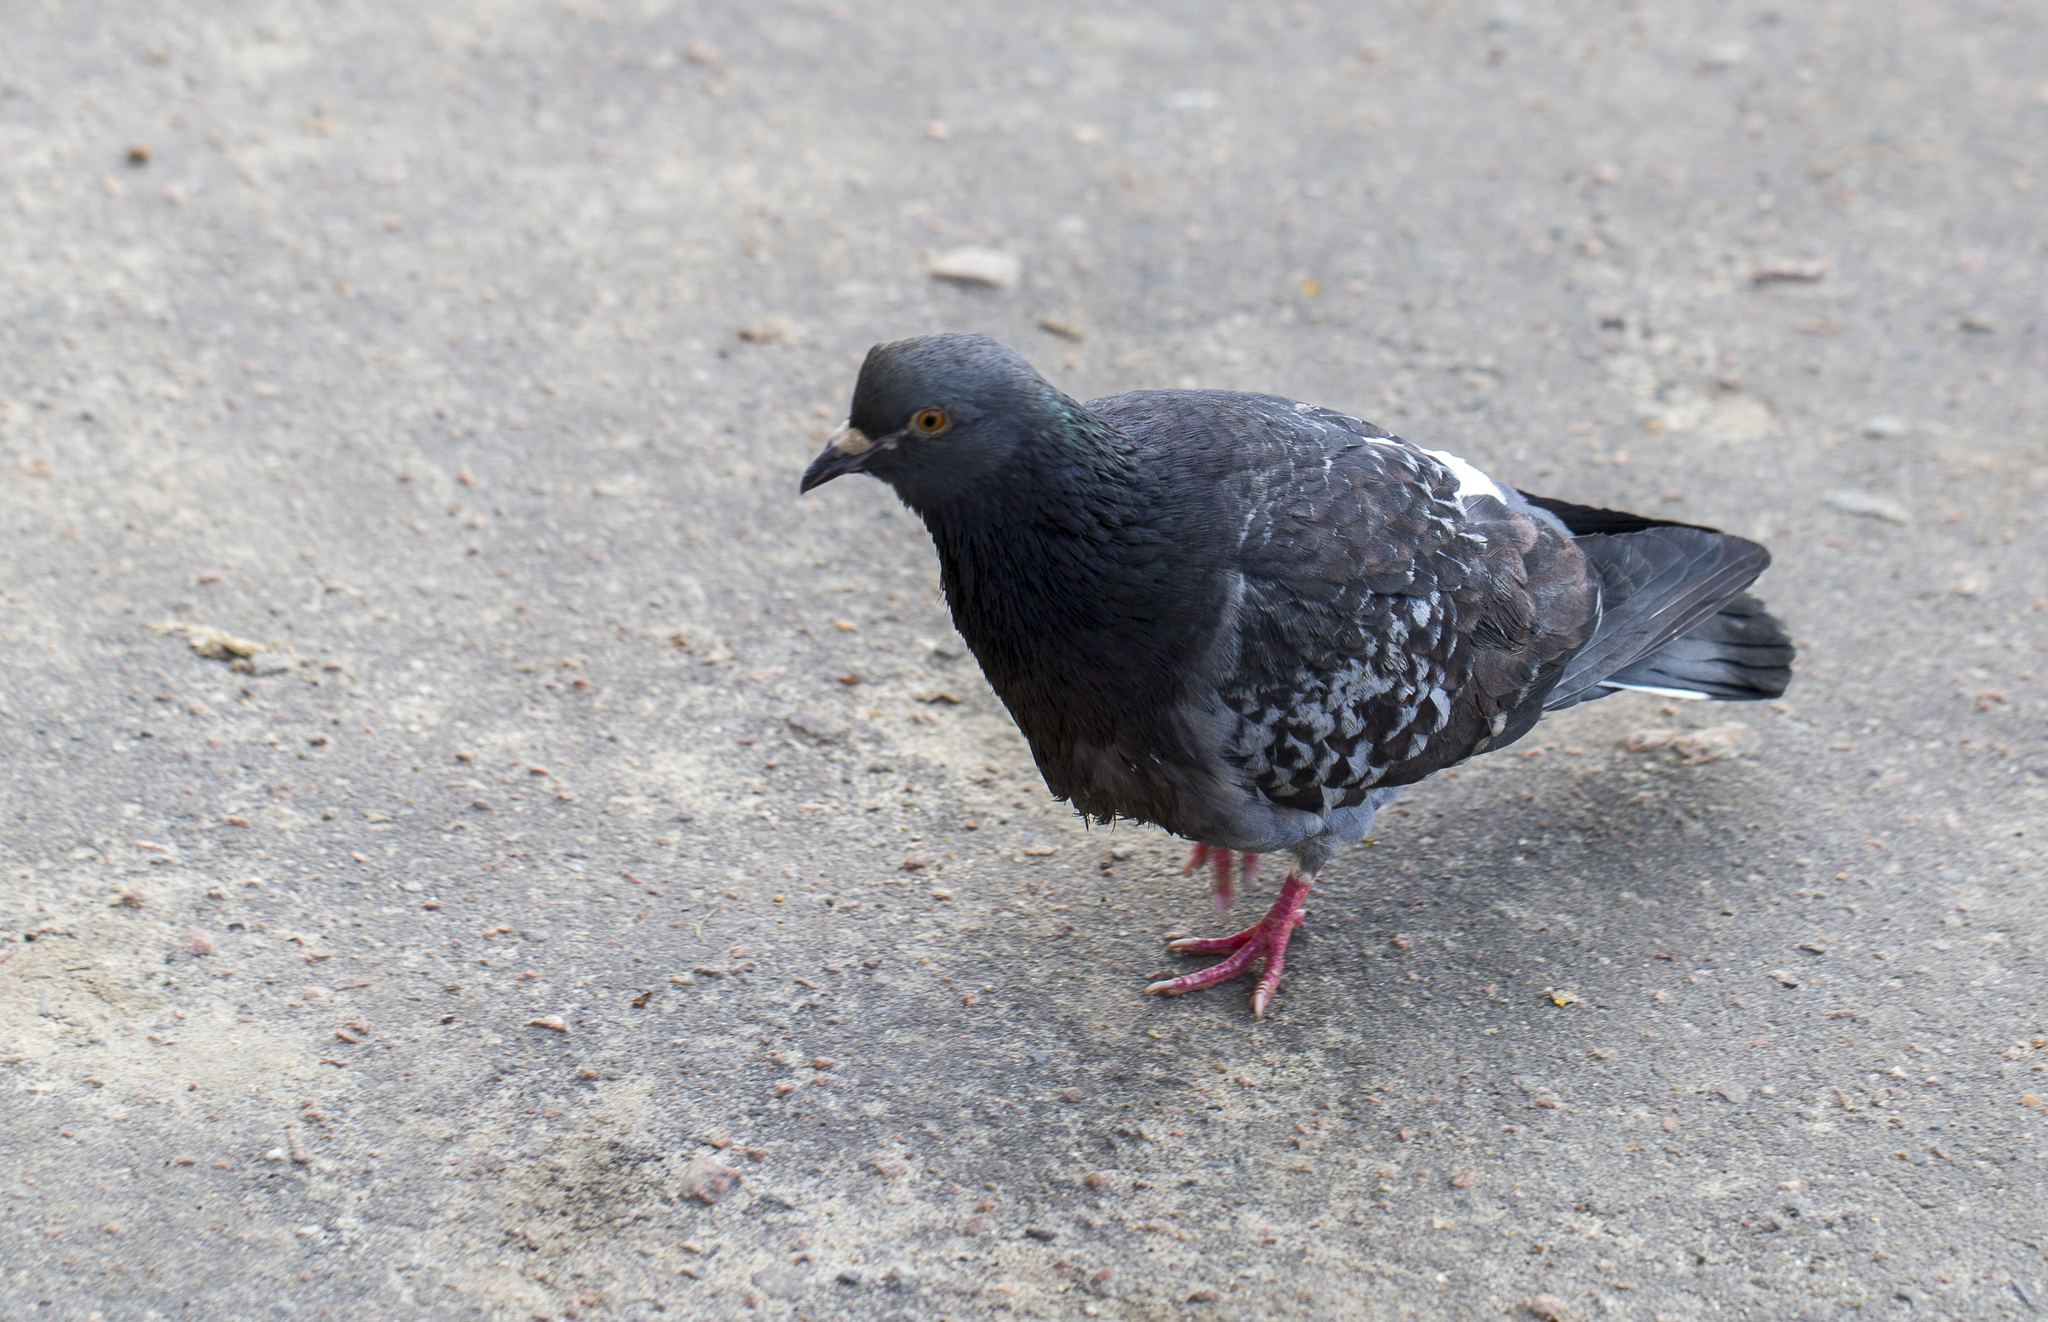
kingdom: Animalia
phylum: Chordata
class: Aves
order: Columbiformes
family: Columbidae
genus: Columba
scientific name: Columba livia
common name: Rock pigeon
